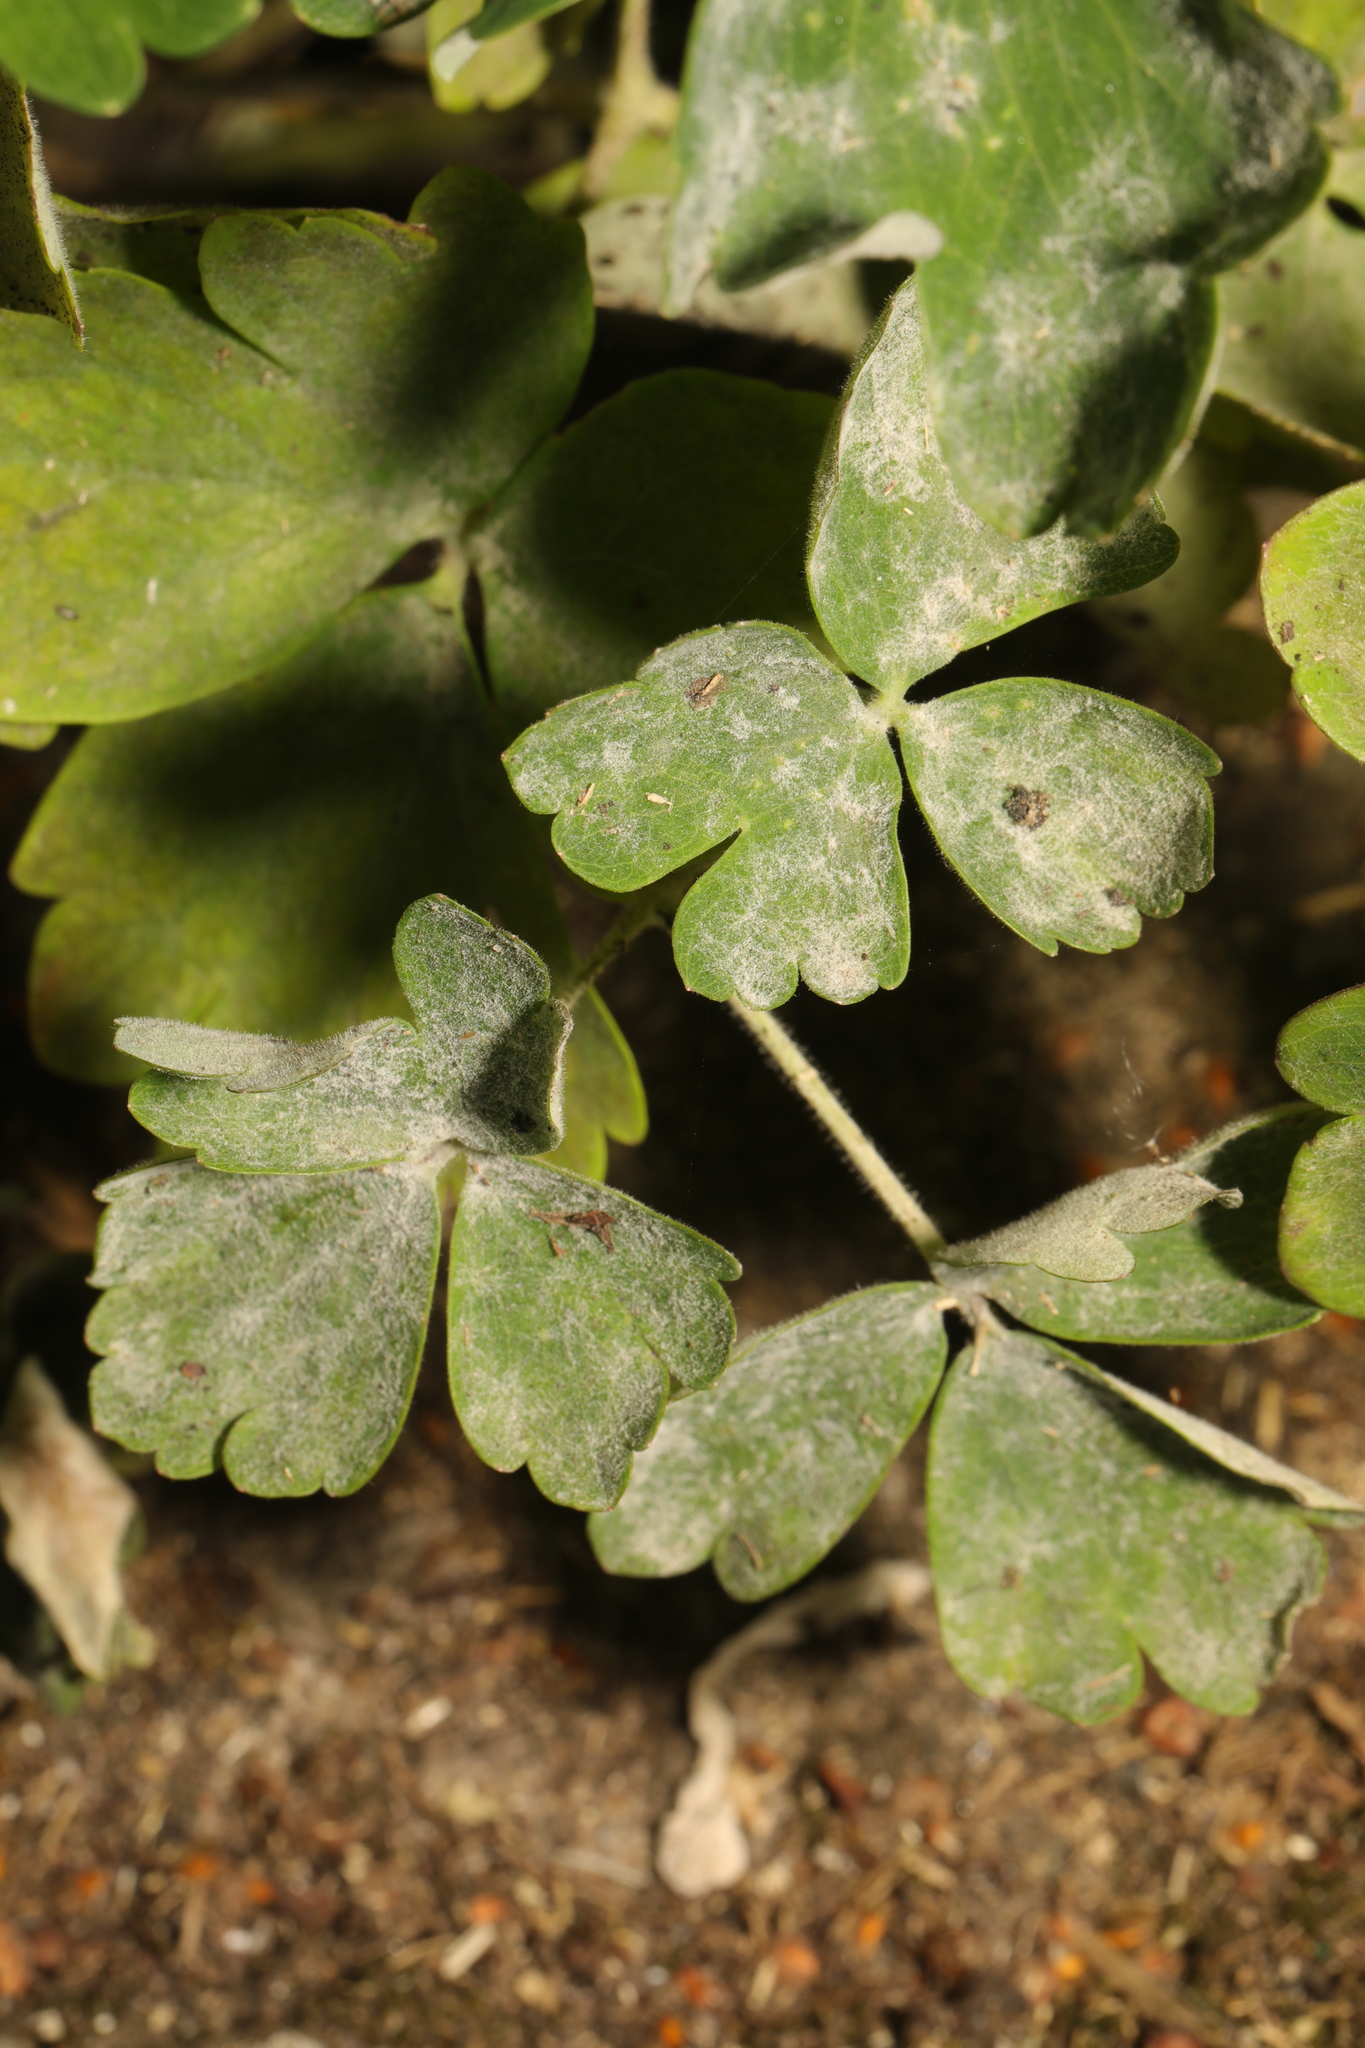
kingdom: Fungi
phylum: Ascomycota
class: Leotiomycetes
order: Helotiales
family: Erysiphaceae
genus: Erysiphe
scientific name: Erysiphe aquilegiae
